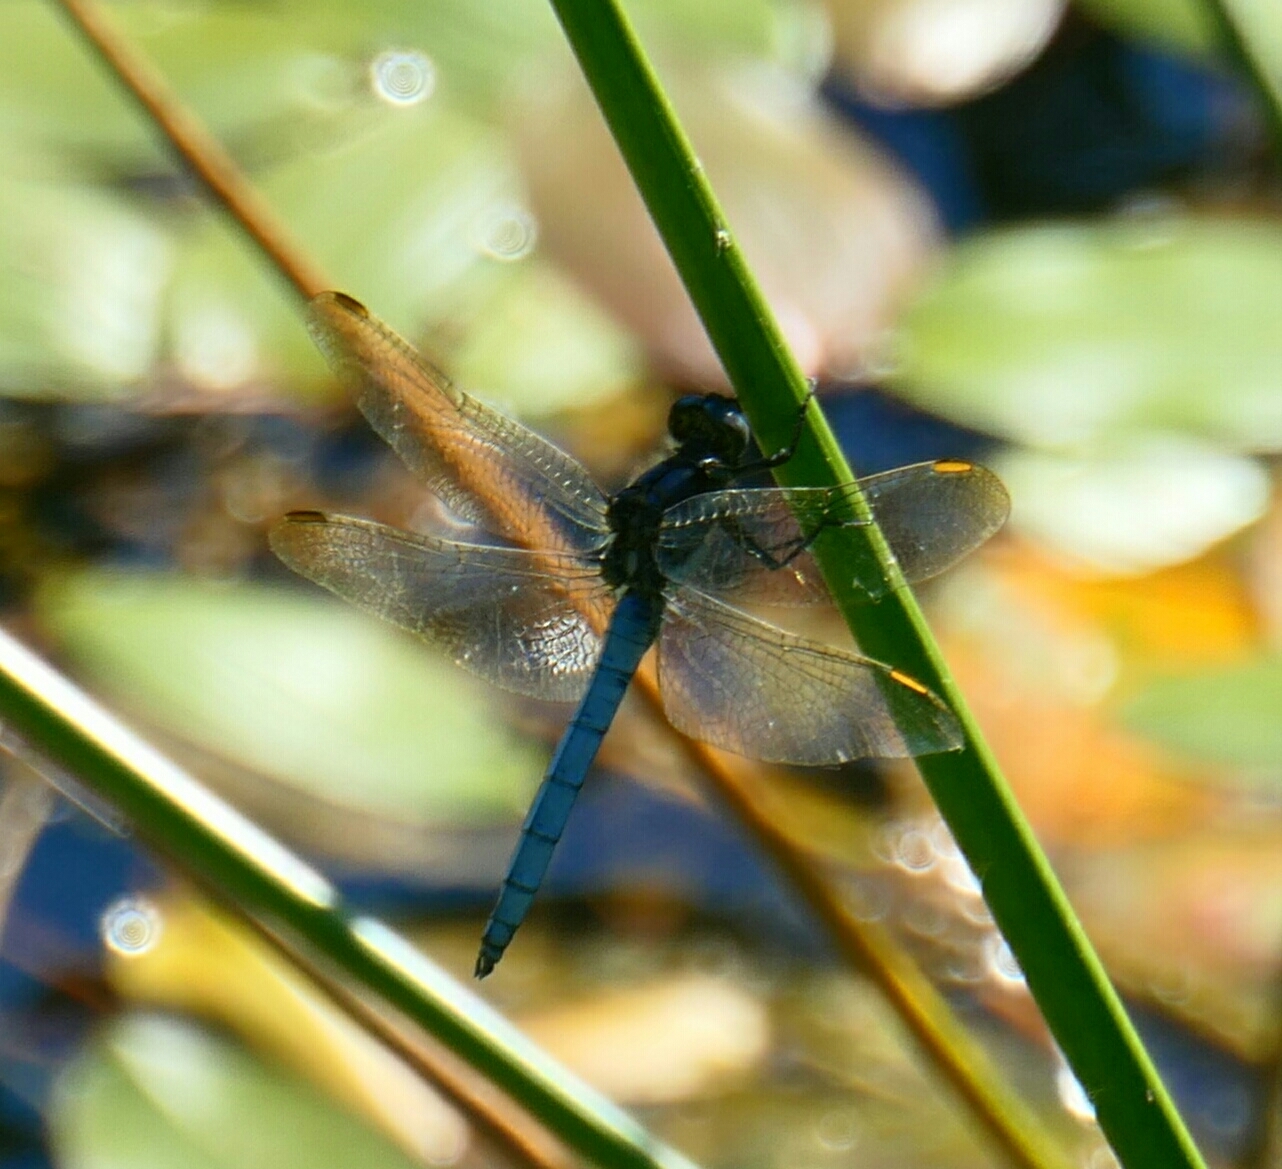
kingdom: Animalia
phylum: Arthropoda
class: Insecta
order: Odonata
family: Libellulidae
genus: Orthetrum
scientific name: Orthetrum coerulescens
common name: Keeled skimmer
